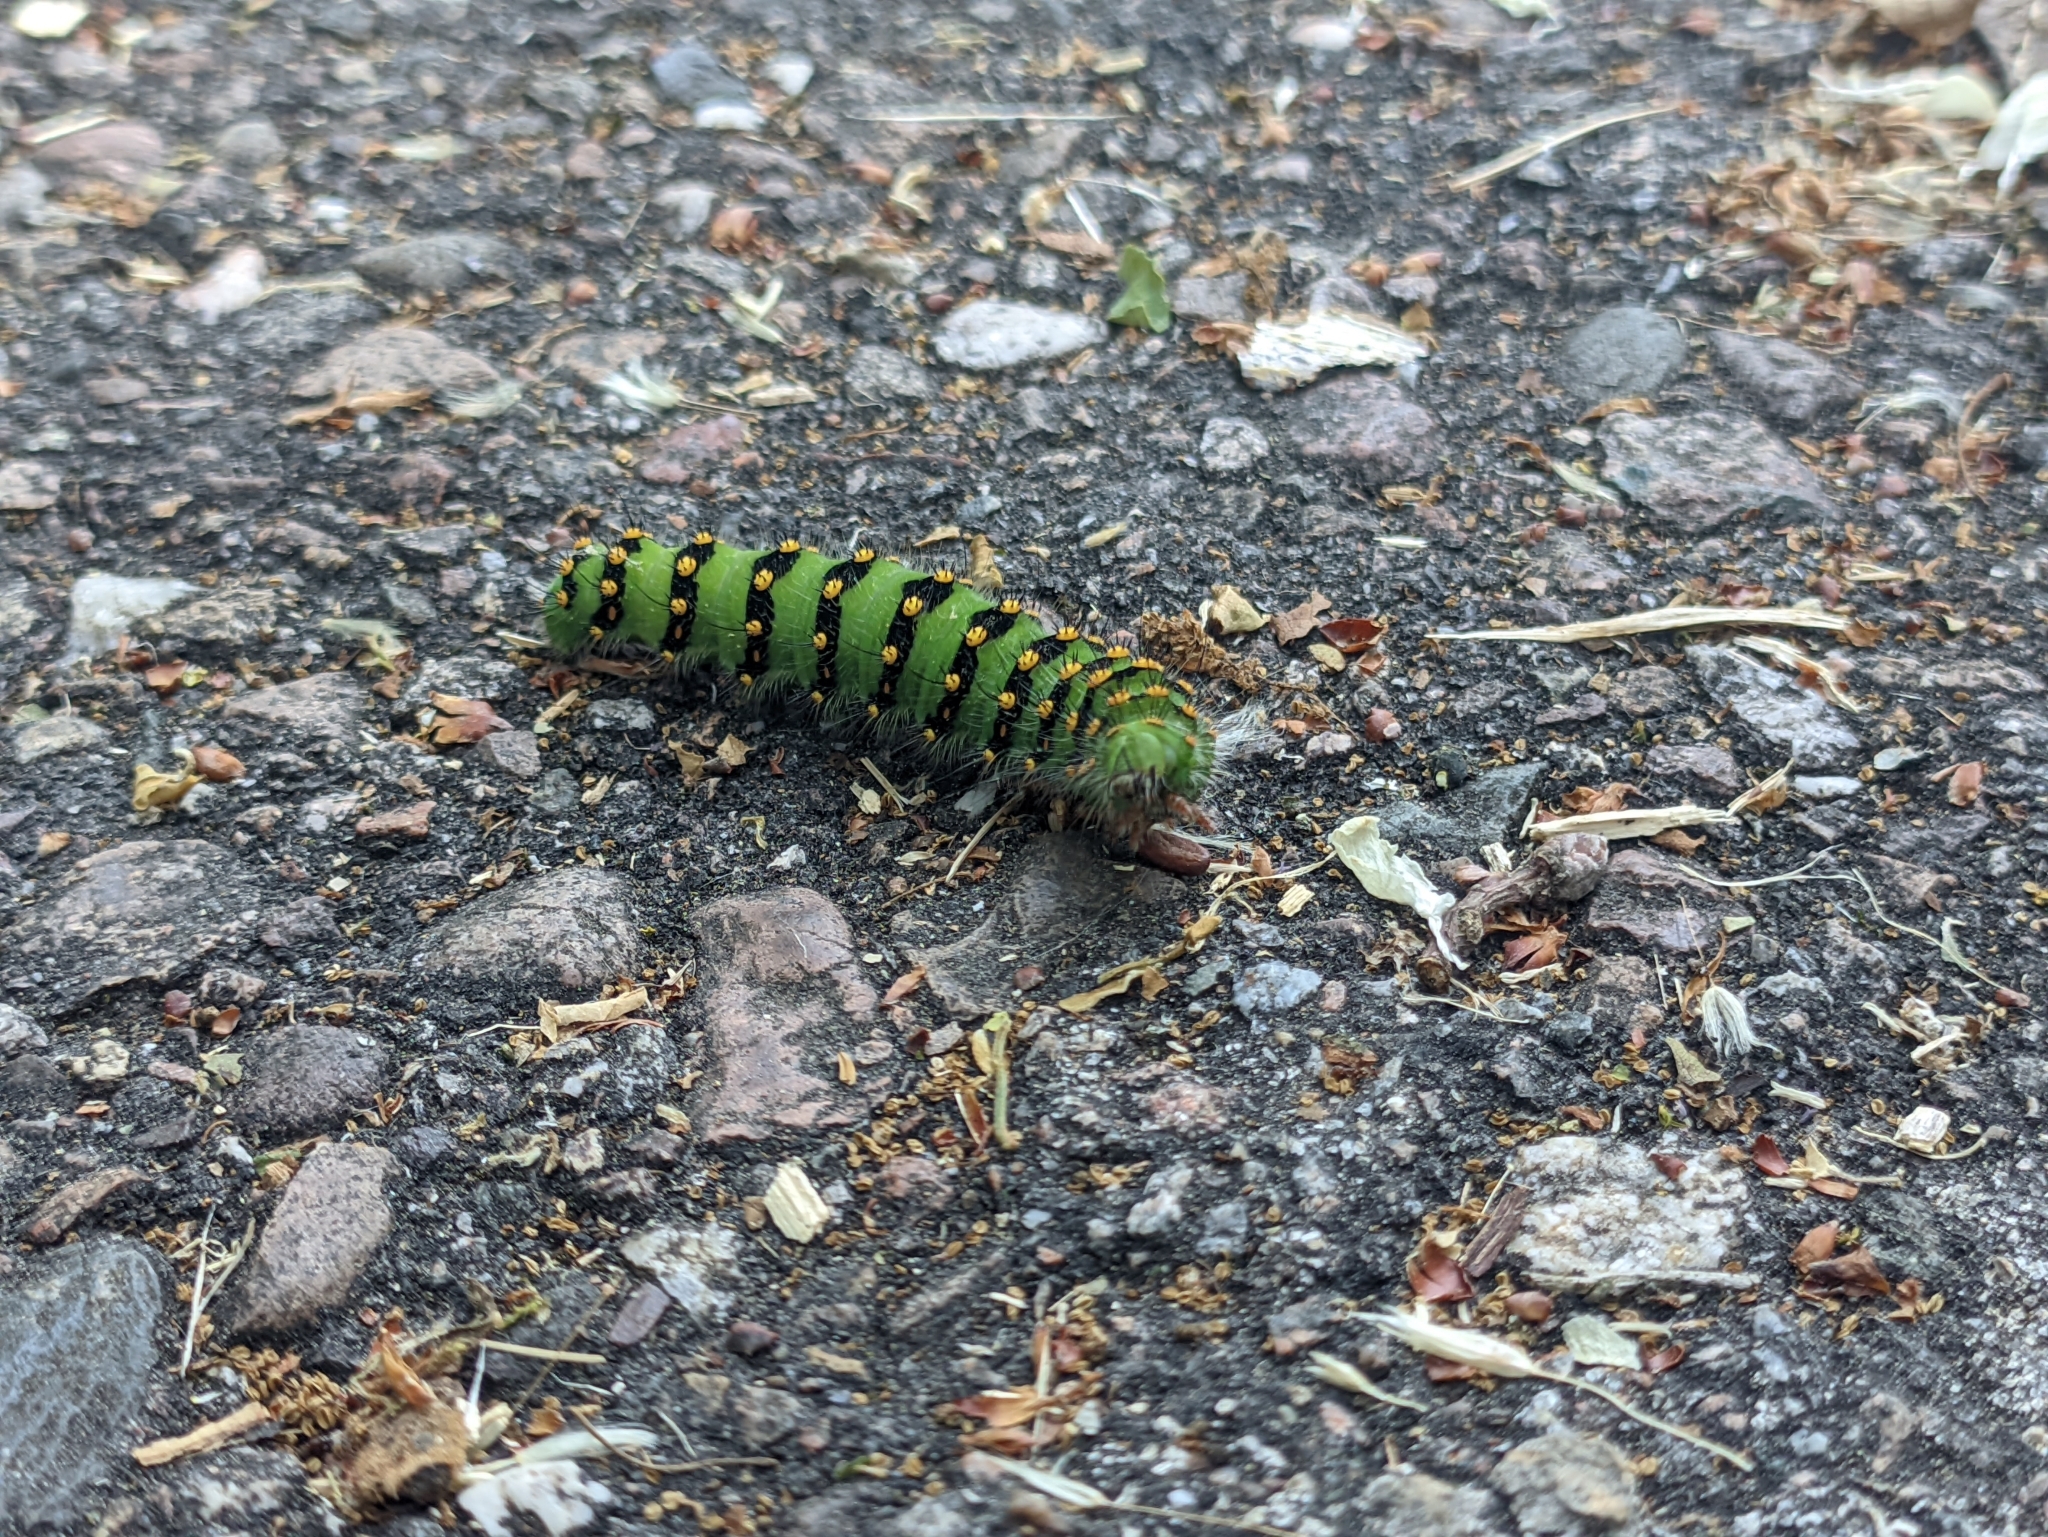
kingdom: Animalia
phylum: Arthropoda
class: Insecta
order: Lepidoptera
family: Saturniidae
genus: Saturnia
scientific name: Saturnia pavonia
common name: Emperor moth
